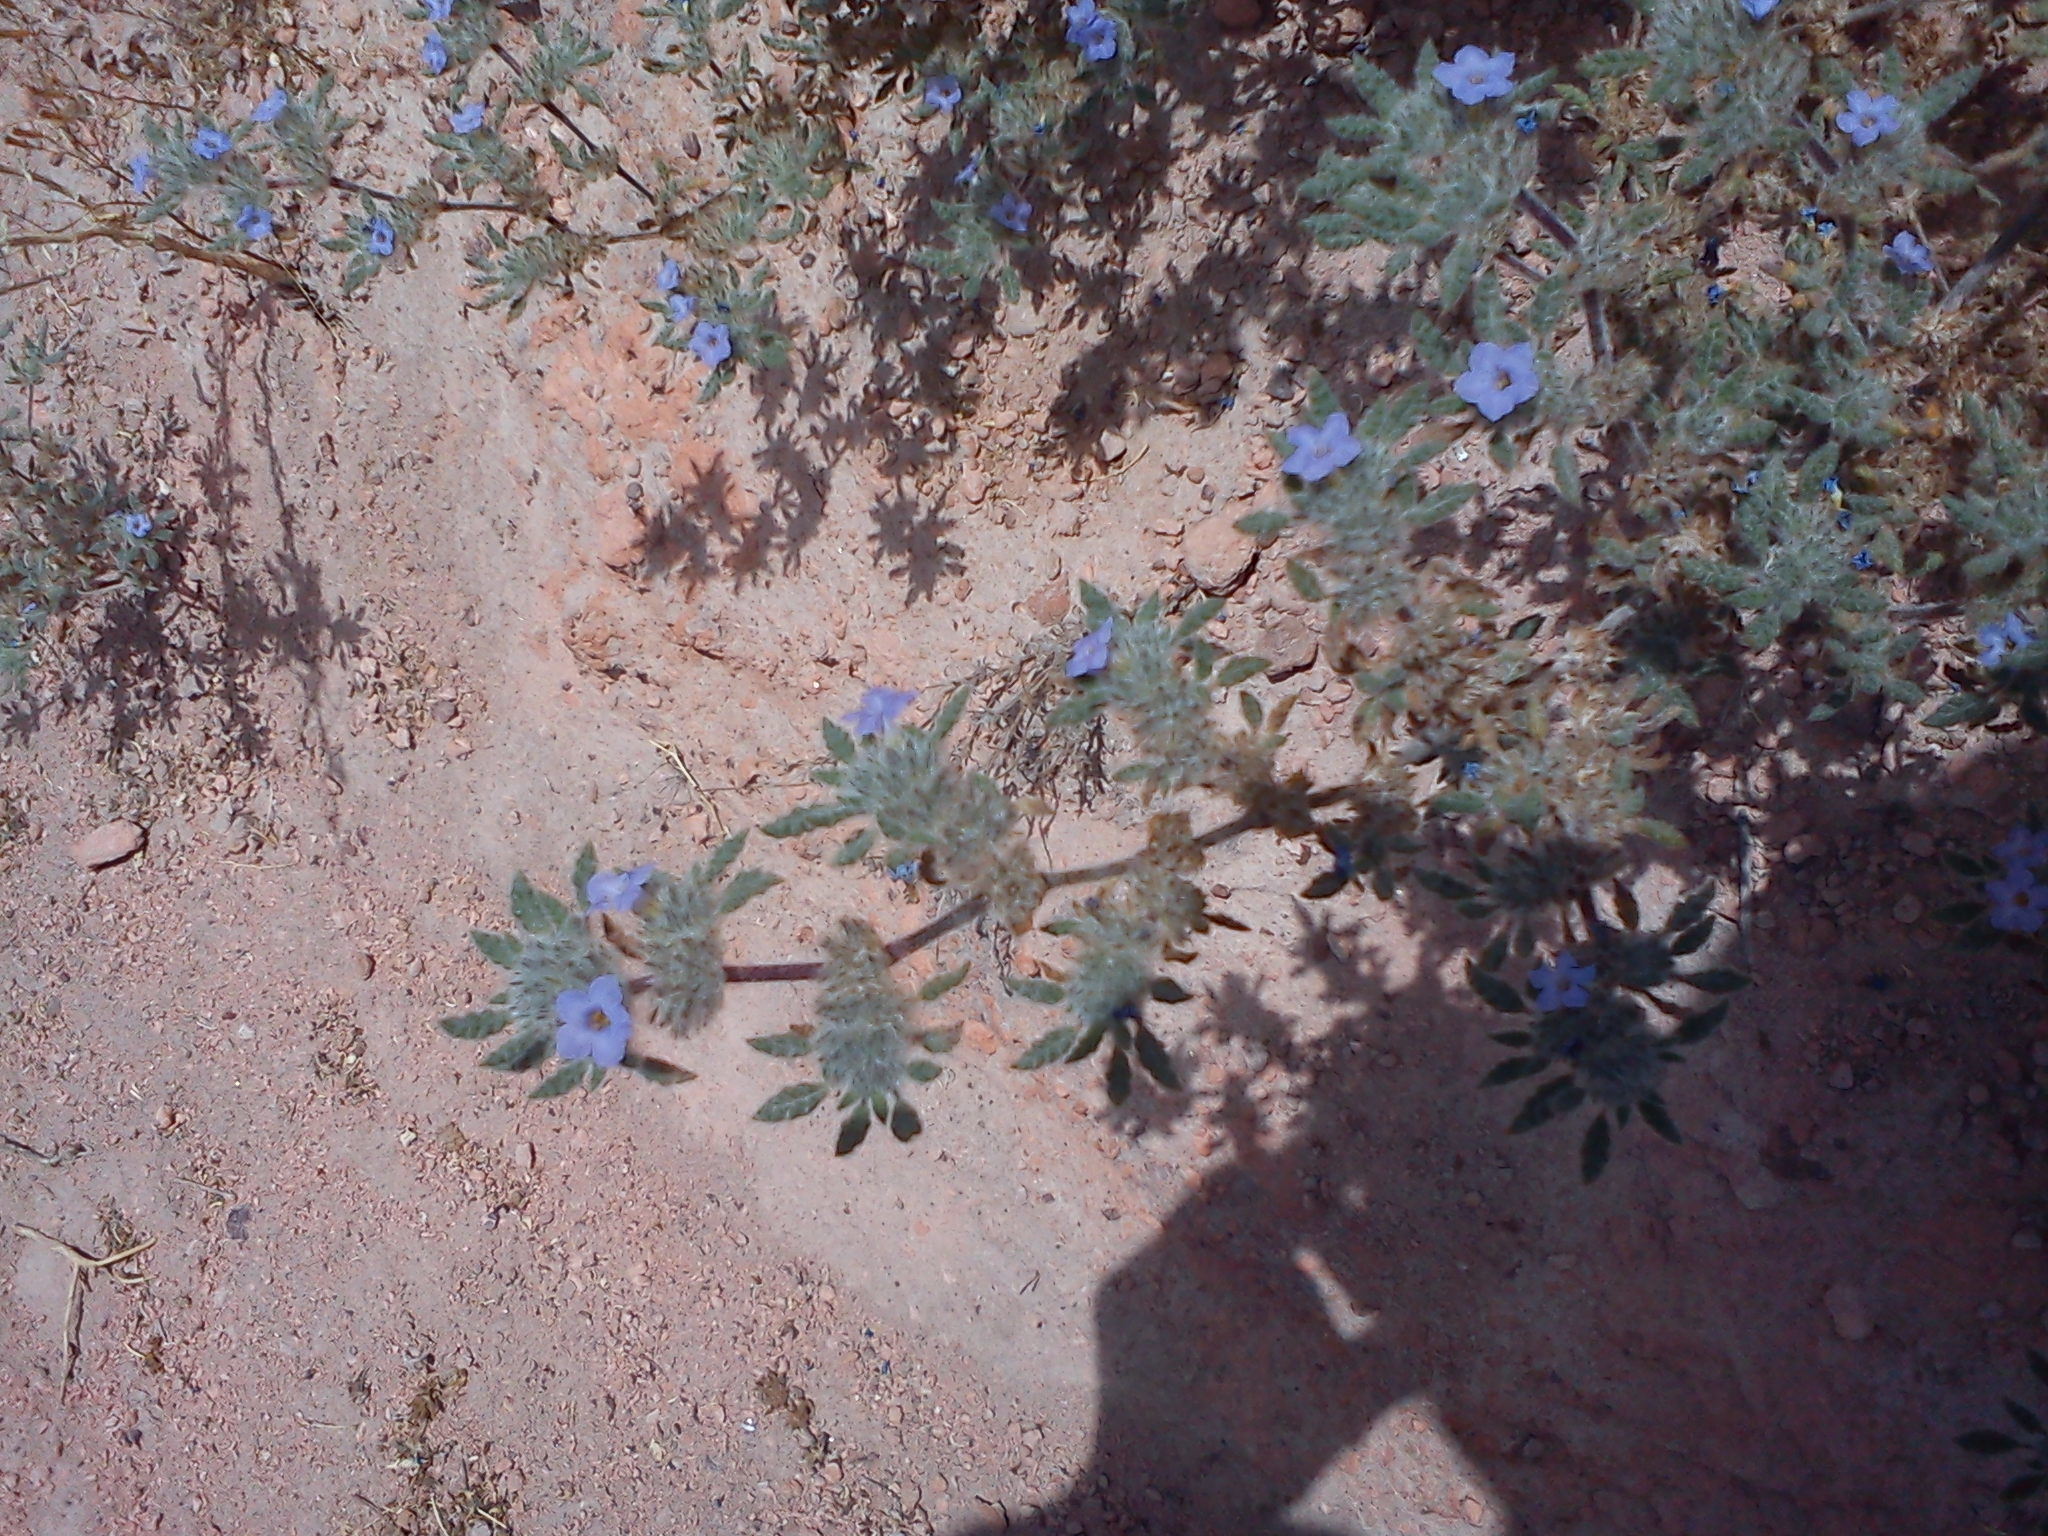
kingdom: Plantae
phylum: Tracheophyta
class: Magnoliopsida
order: Boraginales
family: Ehretiaceae
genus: Tiquilia
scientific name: Tiquilia elongata
